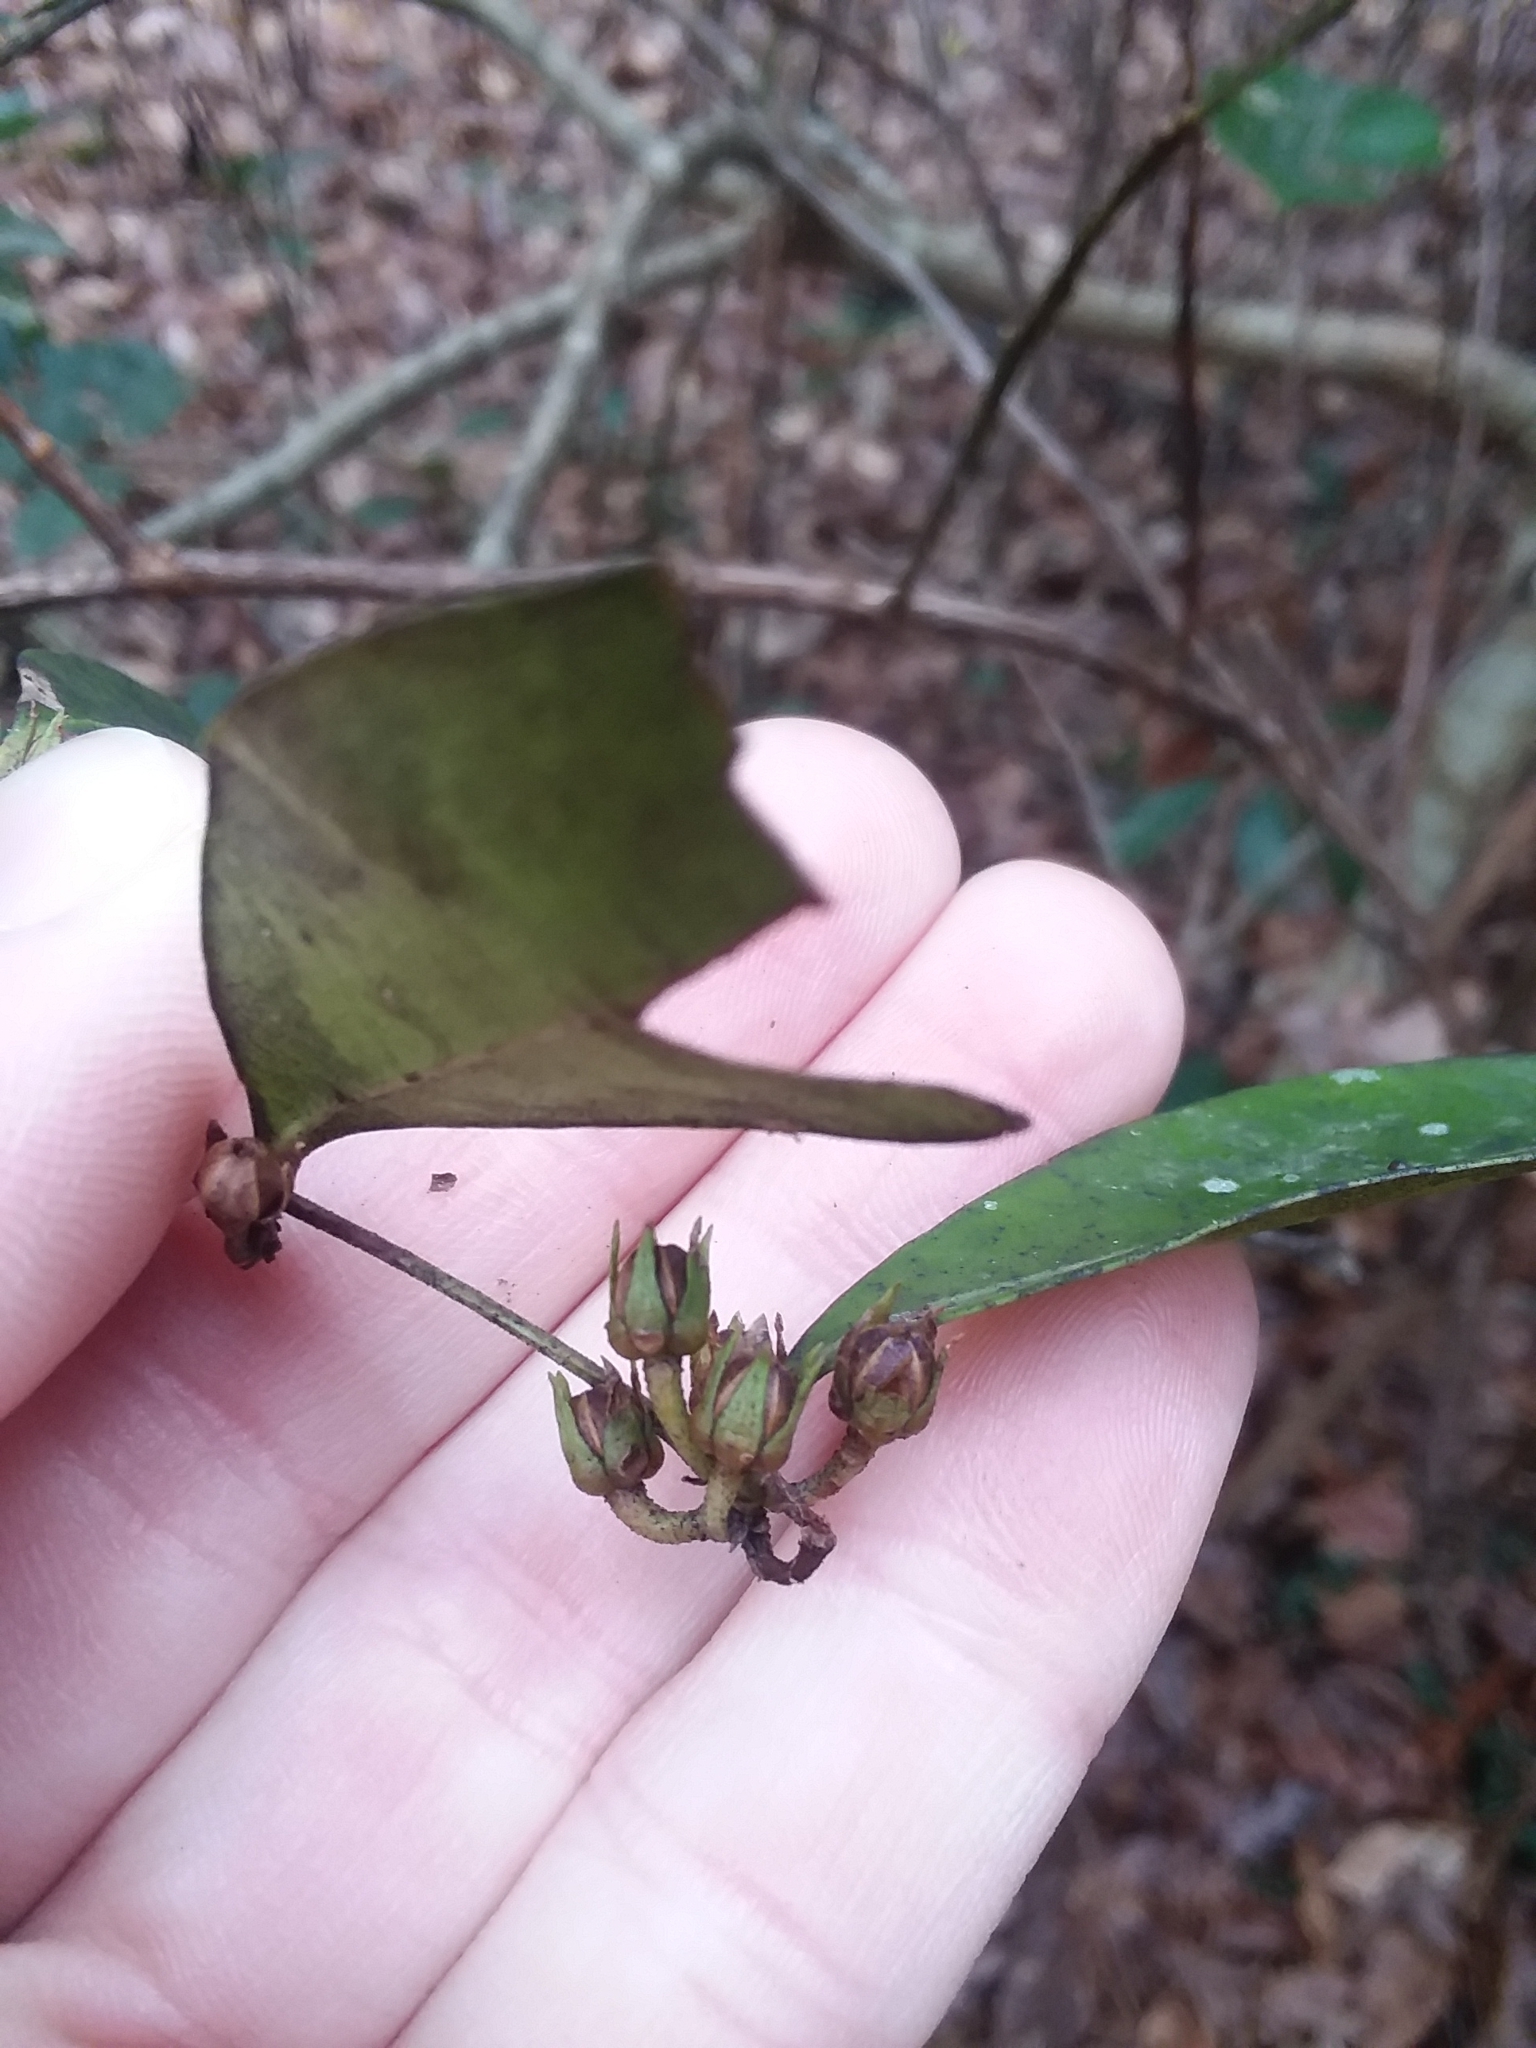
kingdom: Plantae
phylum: Tracheophyta
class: Magnoliopsida
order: Ericales
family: Ericaceae
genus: Lyonia
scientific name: Lyonia lucida
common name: Fetterbush
